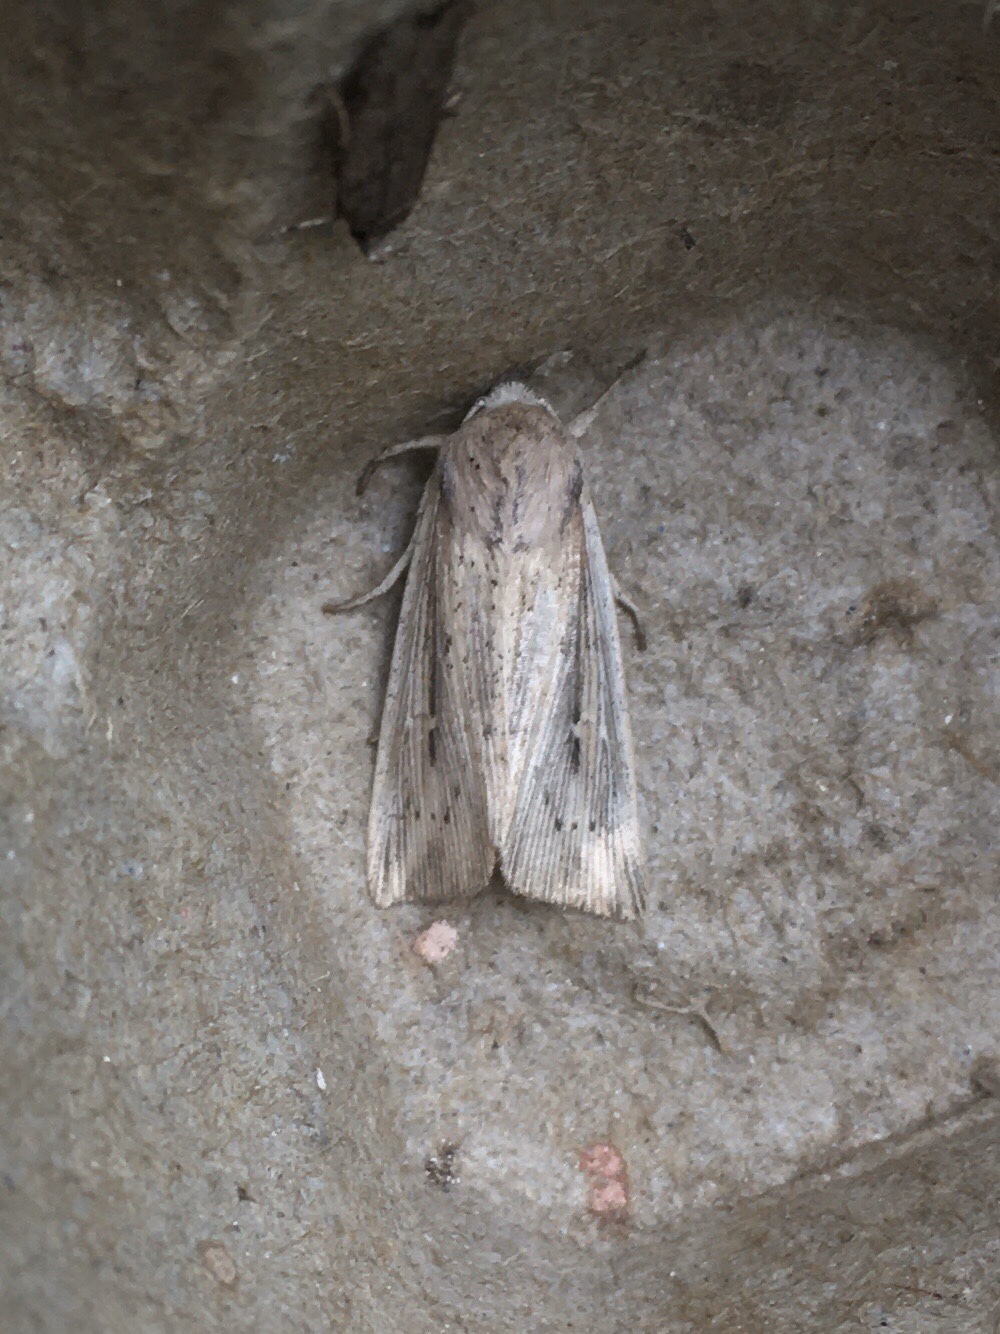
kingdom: Animalia
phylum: Arthropoda
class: Insecta
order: Lepidoptera
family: Noctuidae
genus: Leucania
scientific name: Leucania linita
